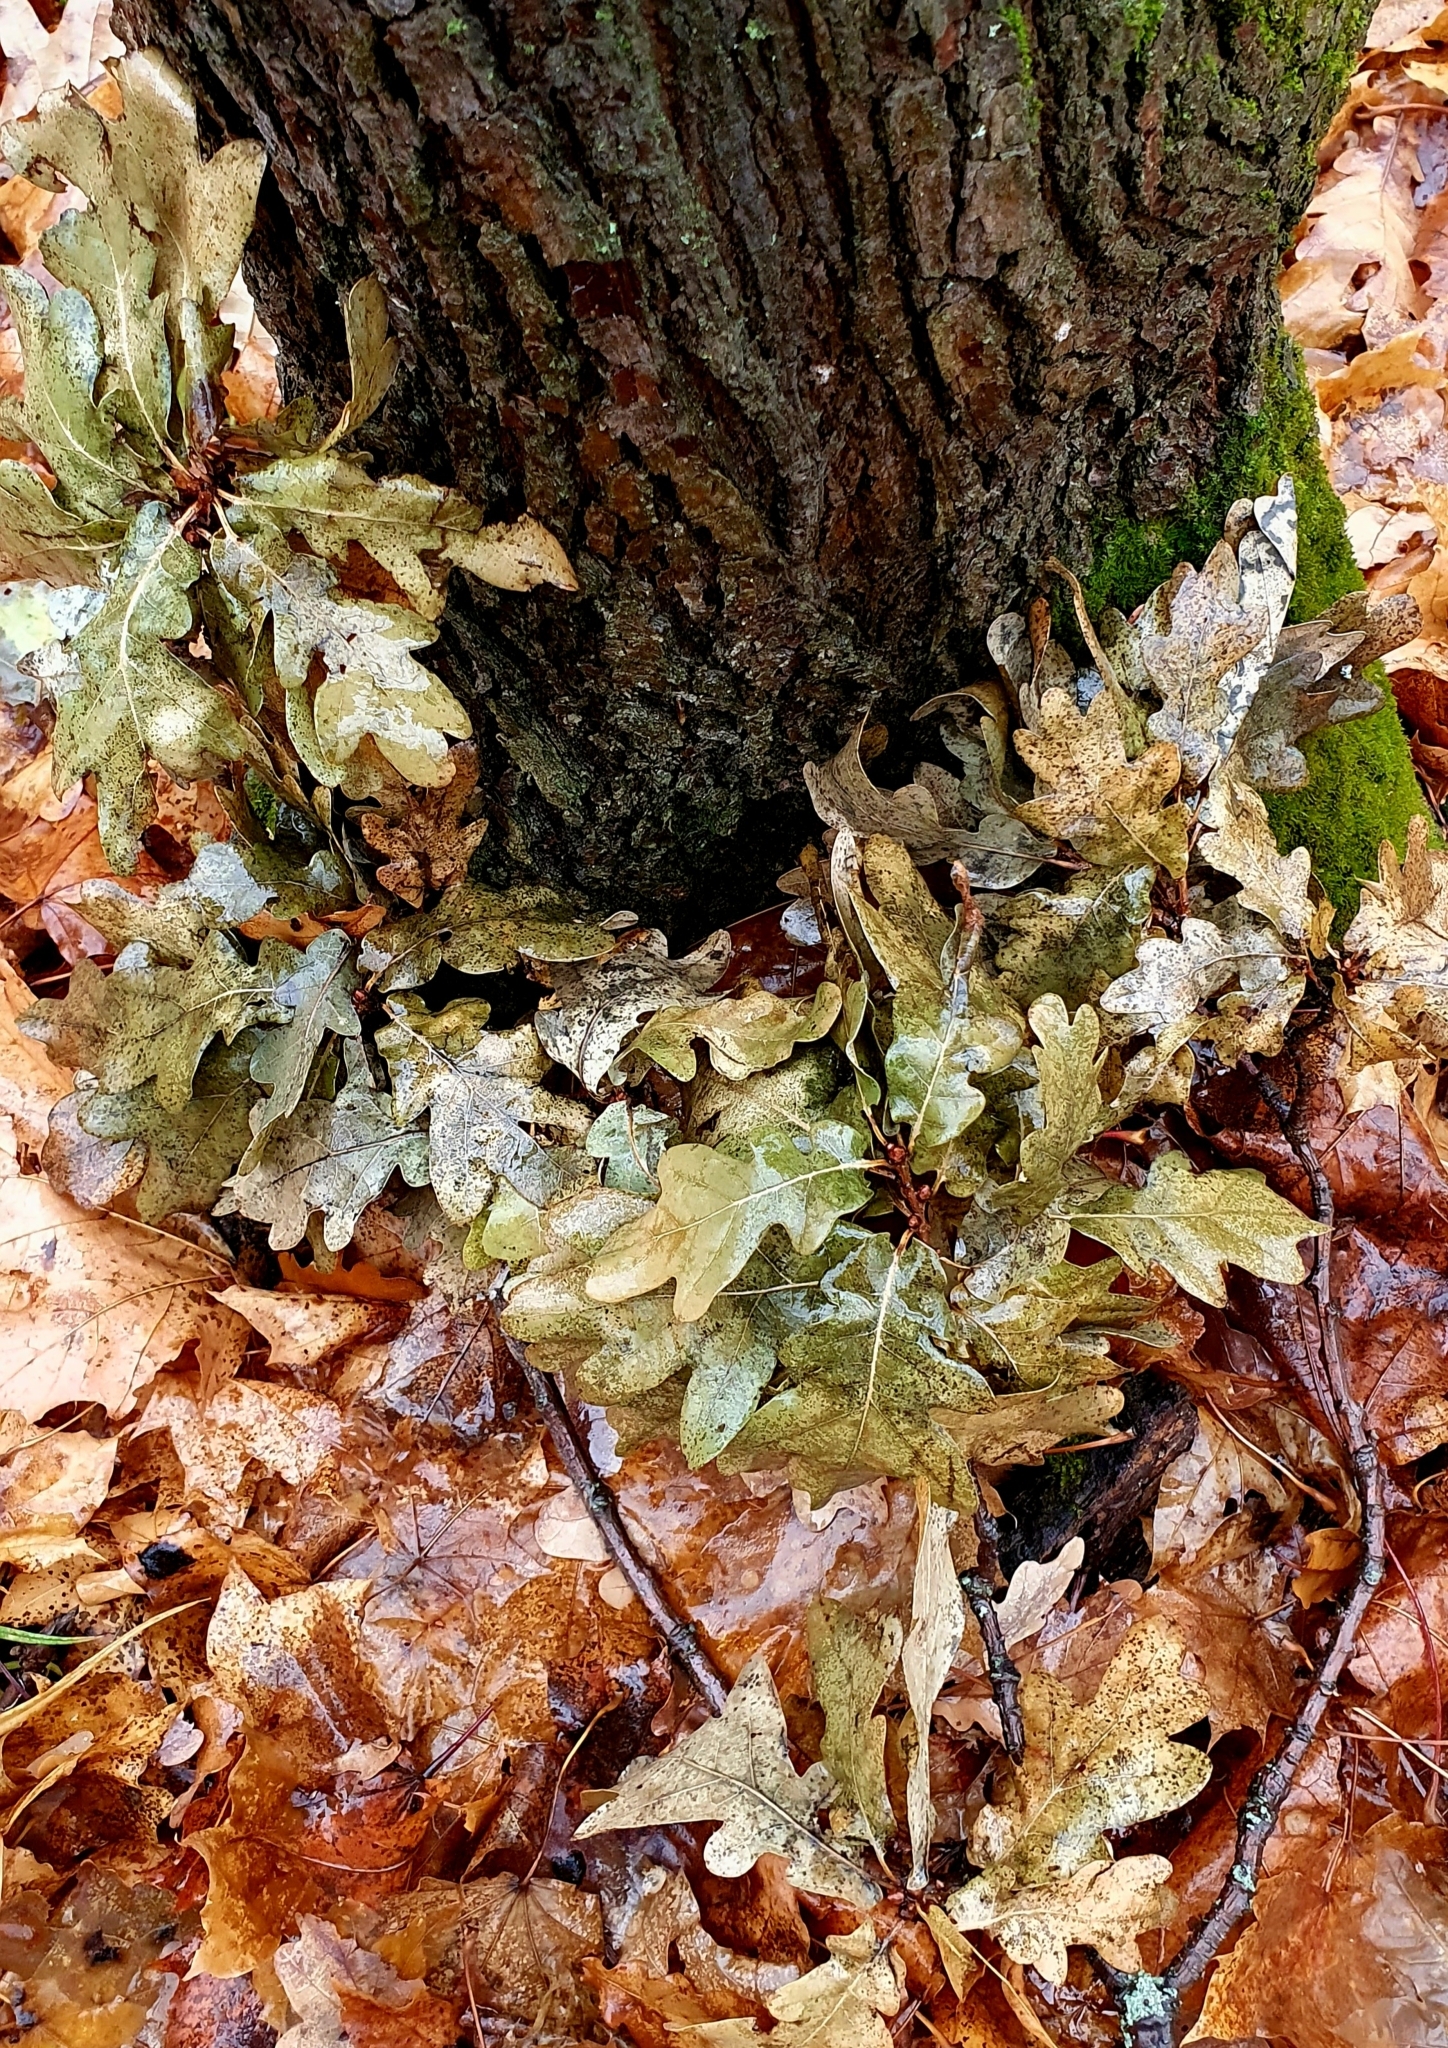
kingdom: Plantae
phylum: Tracheophyta
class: Magnoliopsida
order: Fagales
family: Fagaceae
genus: Quercus
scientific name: Quercus robur
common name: Pedunculate oak
